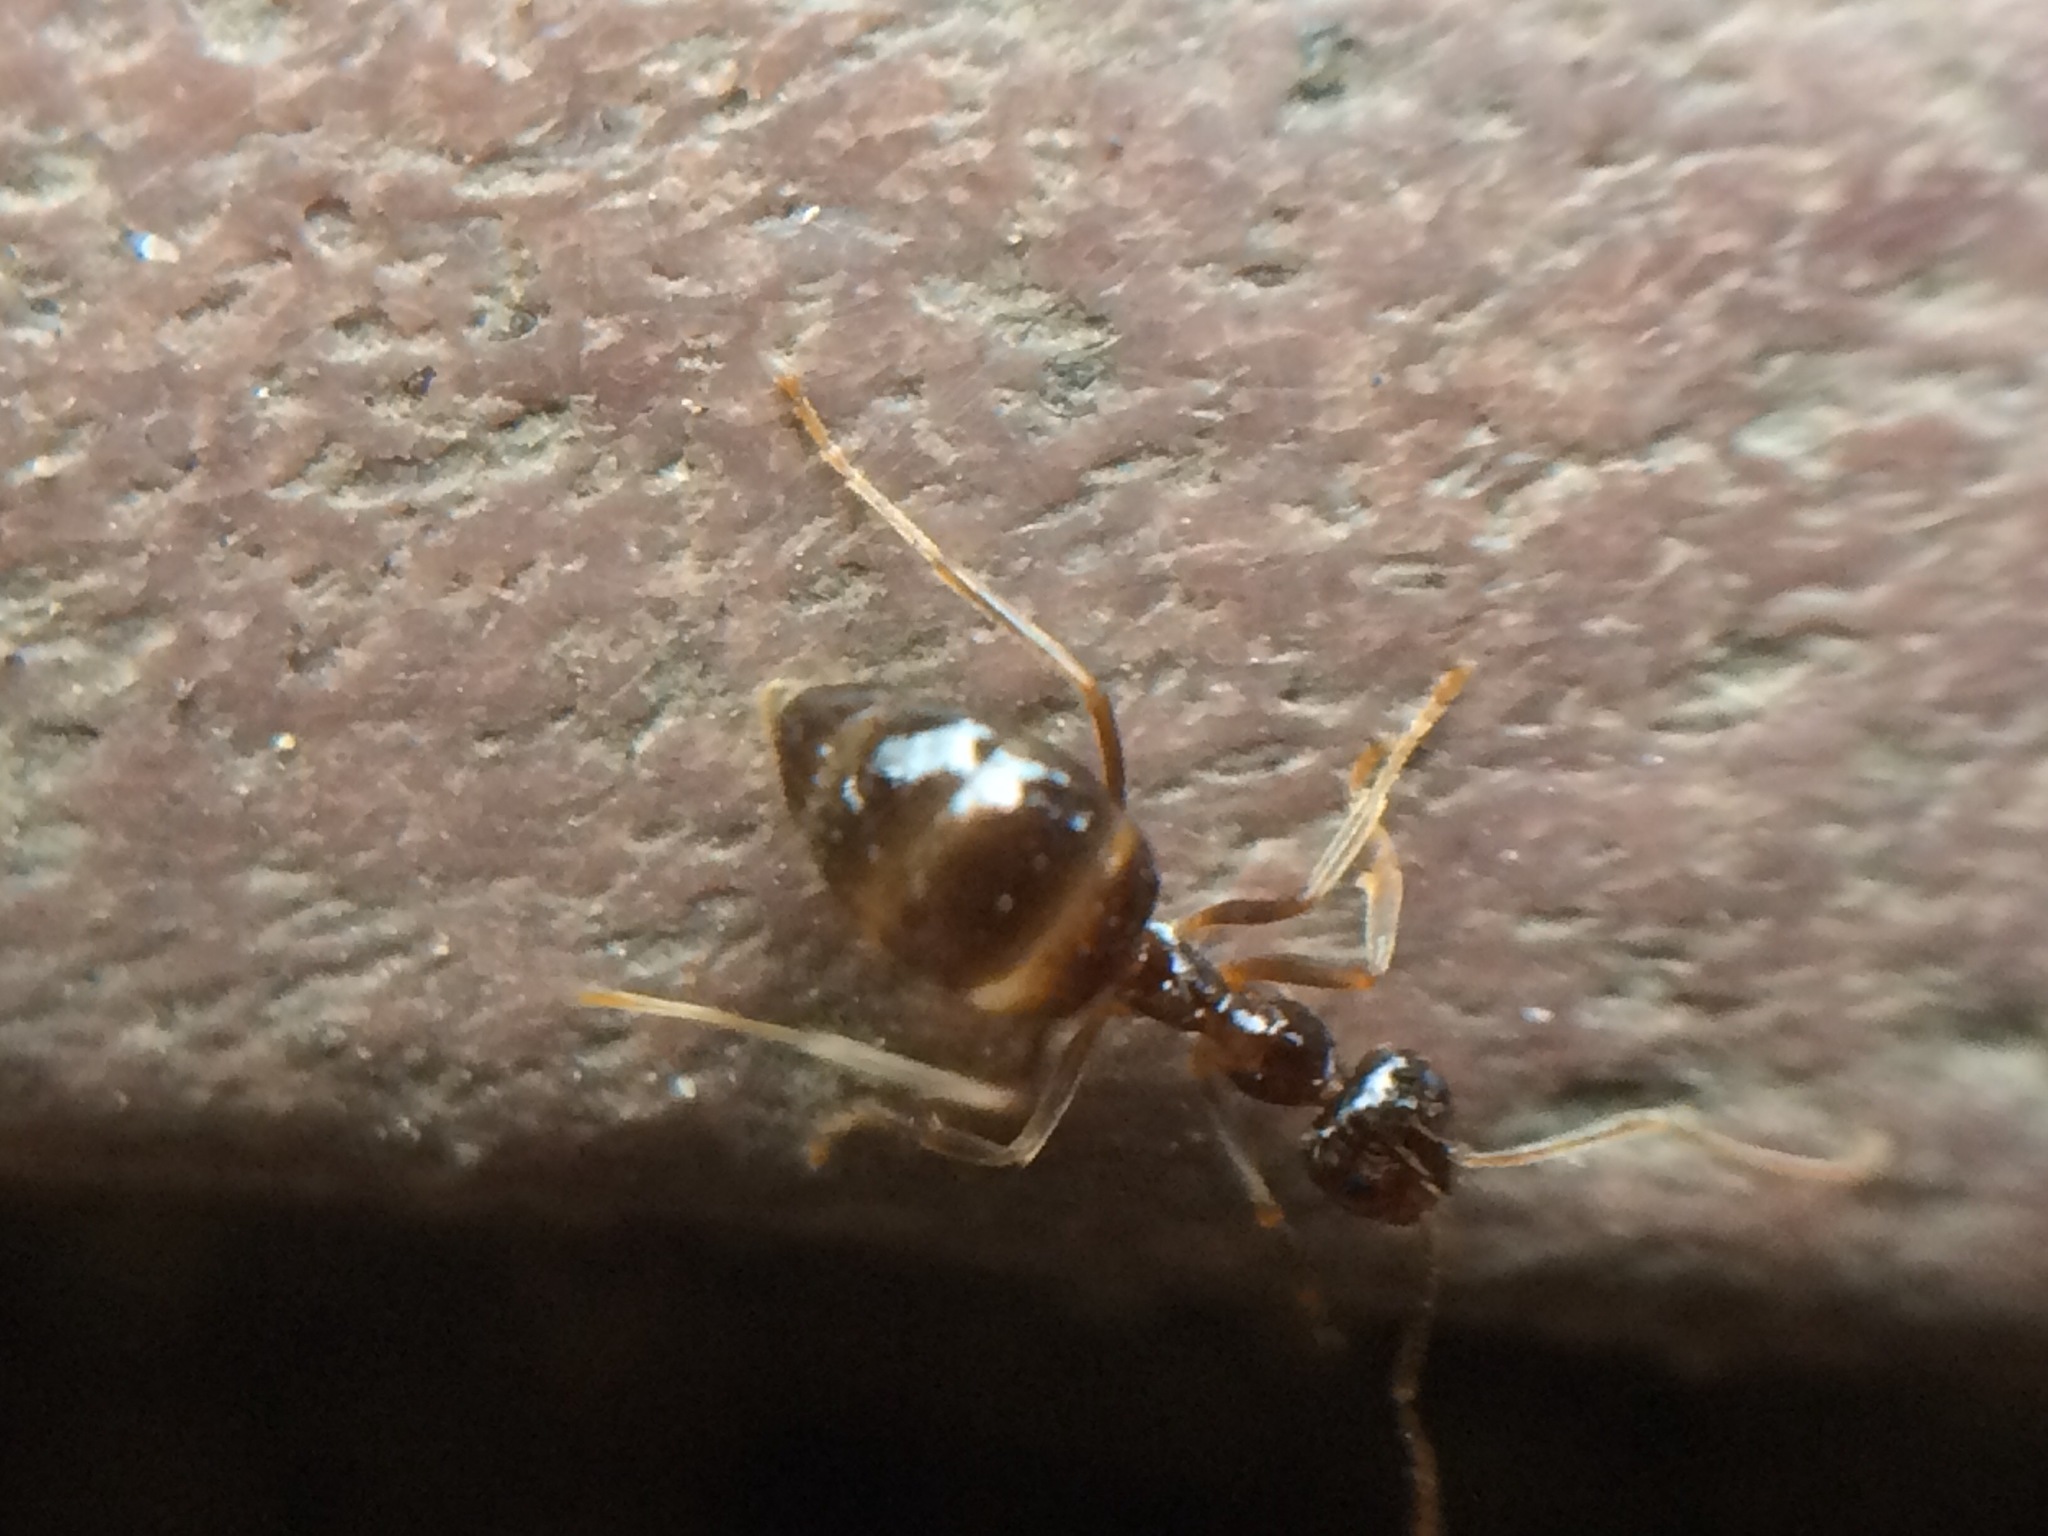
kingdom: Animalia
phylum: Arthropoda
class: Insecta
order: Hymenoptera
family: Formicidae
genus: Prenolepis
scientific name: Prenolepis imparis
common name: Small honey ant
